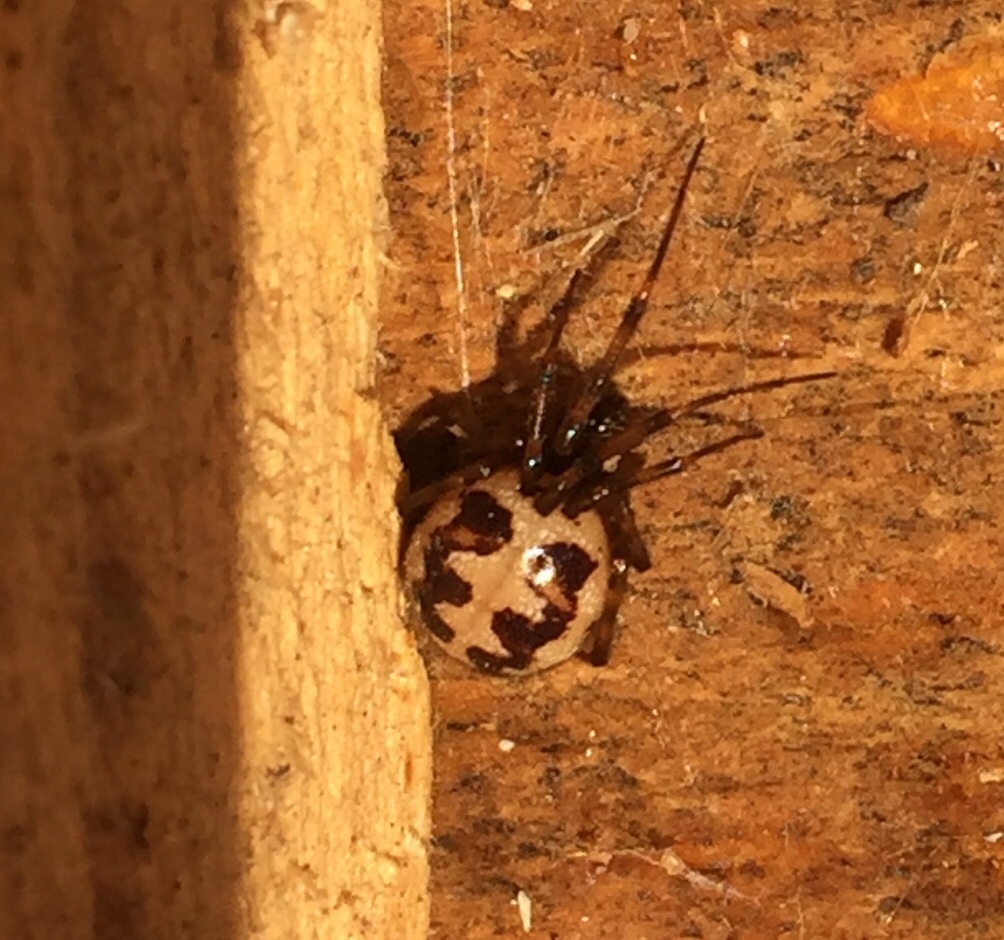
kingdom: Animalia
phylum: Arthropoda
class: Arachnida
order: Araneae
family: Theridiidae
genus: Steatoda
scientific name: Steatoda triangulosa
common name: Triangulate bud spider
